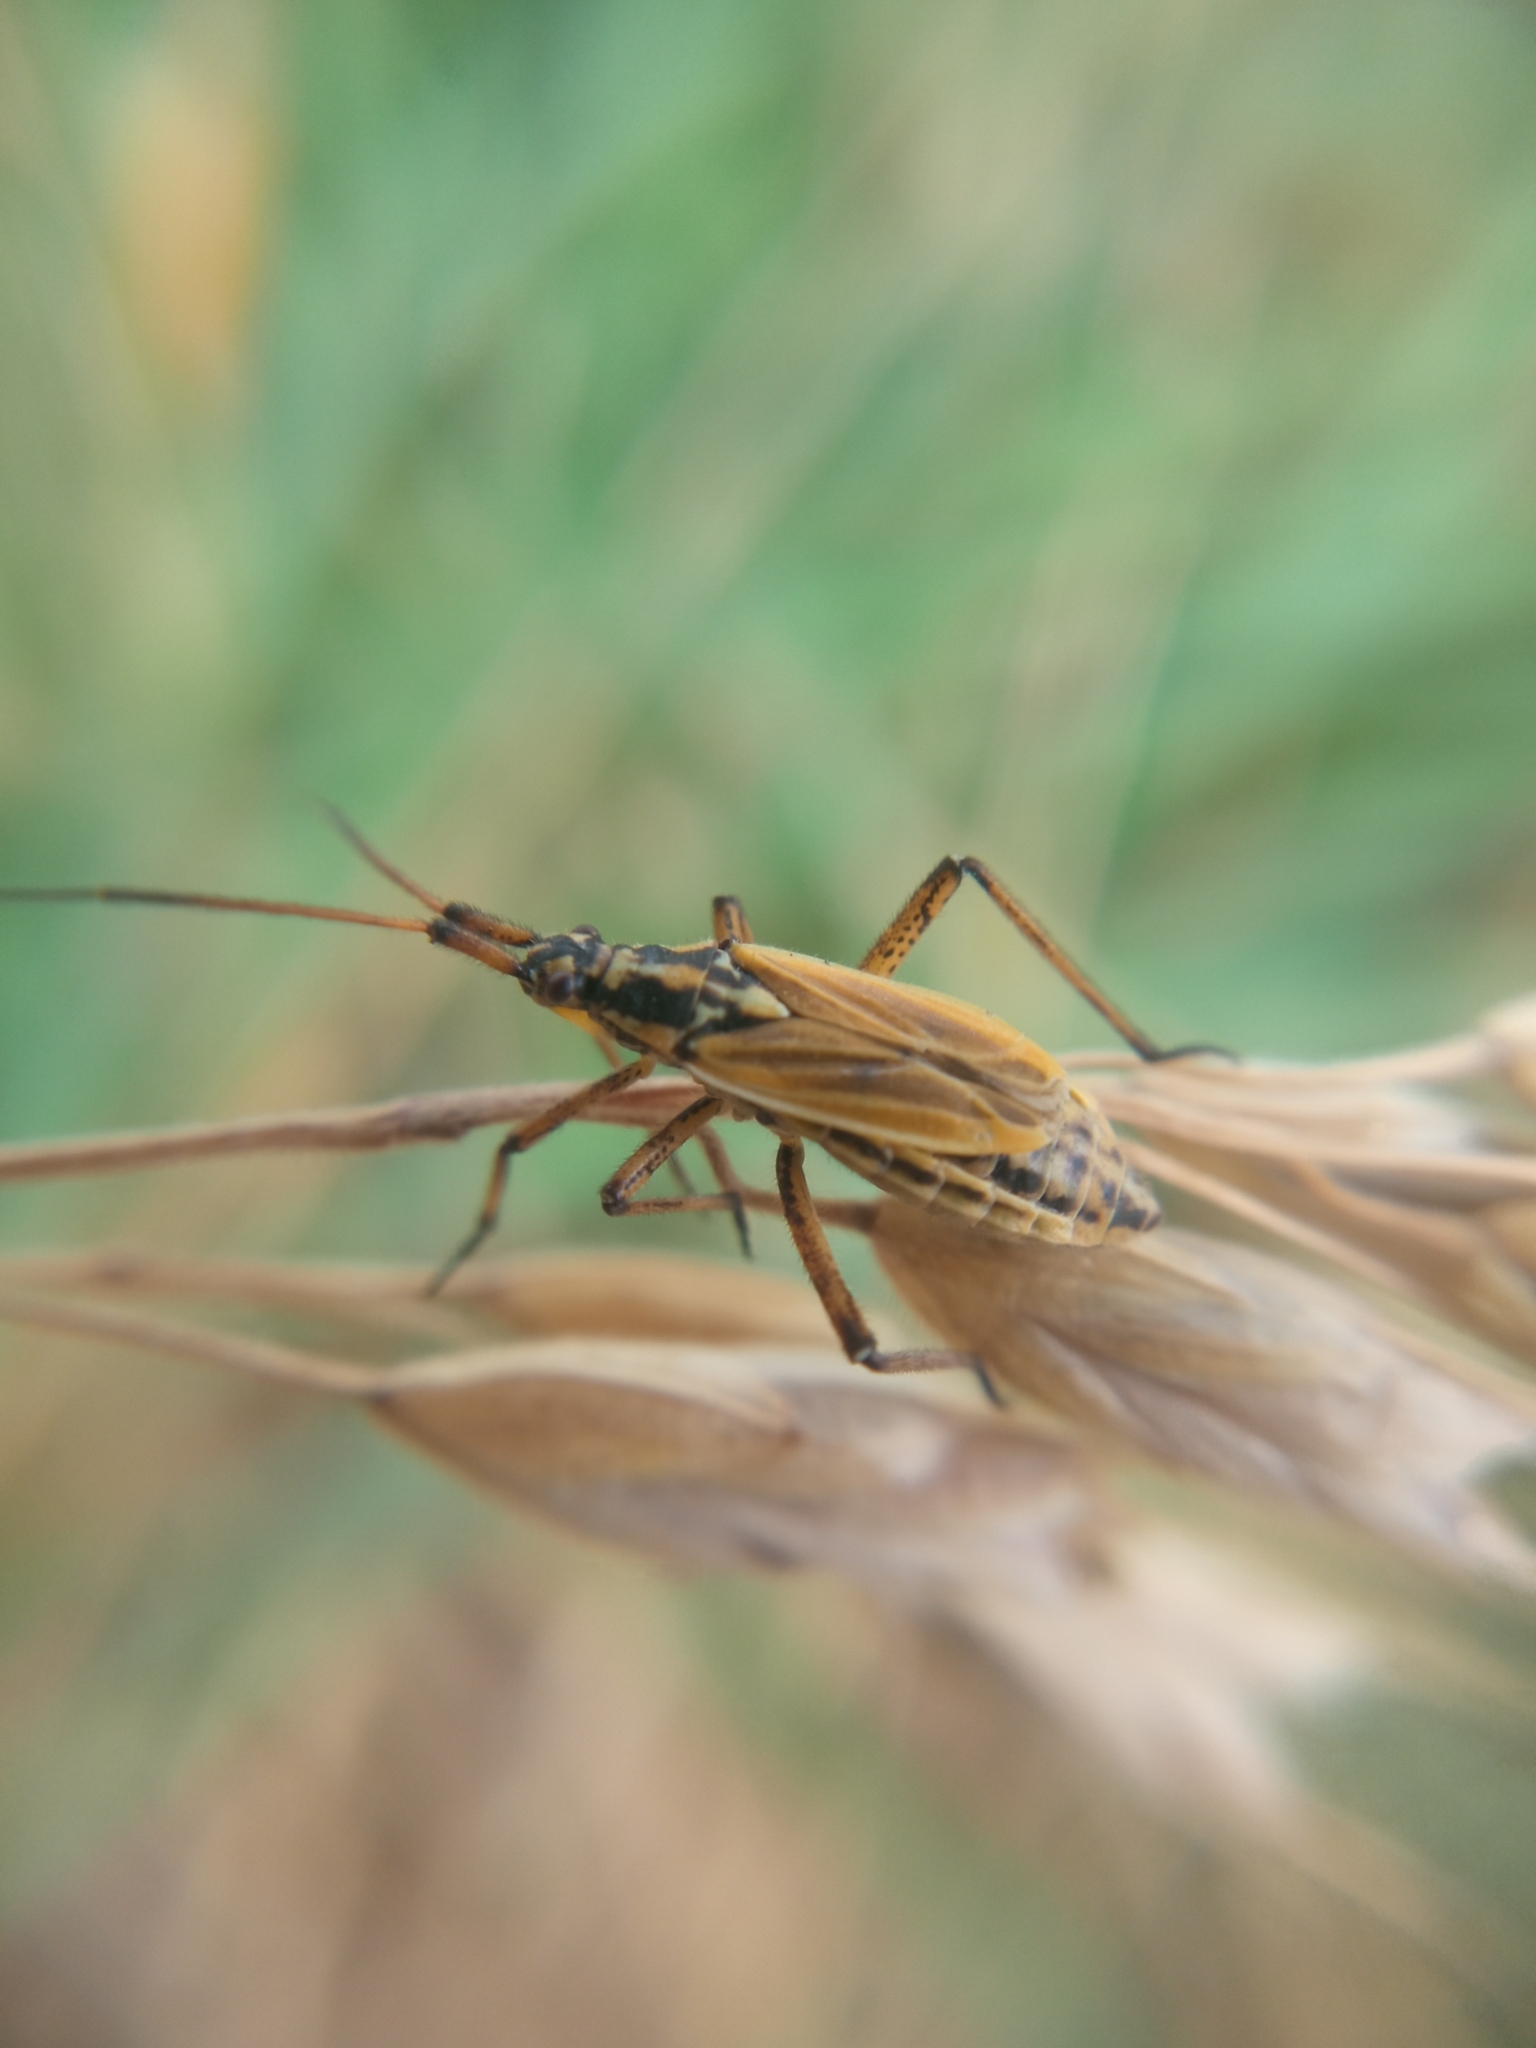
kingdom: Animalia
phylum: Arthropoda
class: Insecta
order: Hemiptera
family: Miridae
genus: Leptopterna
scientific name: Leptopterna dolabrata
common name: Meadow plant bug
